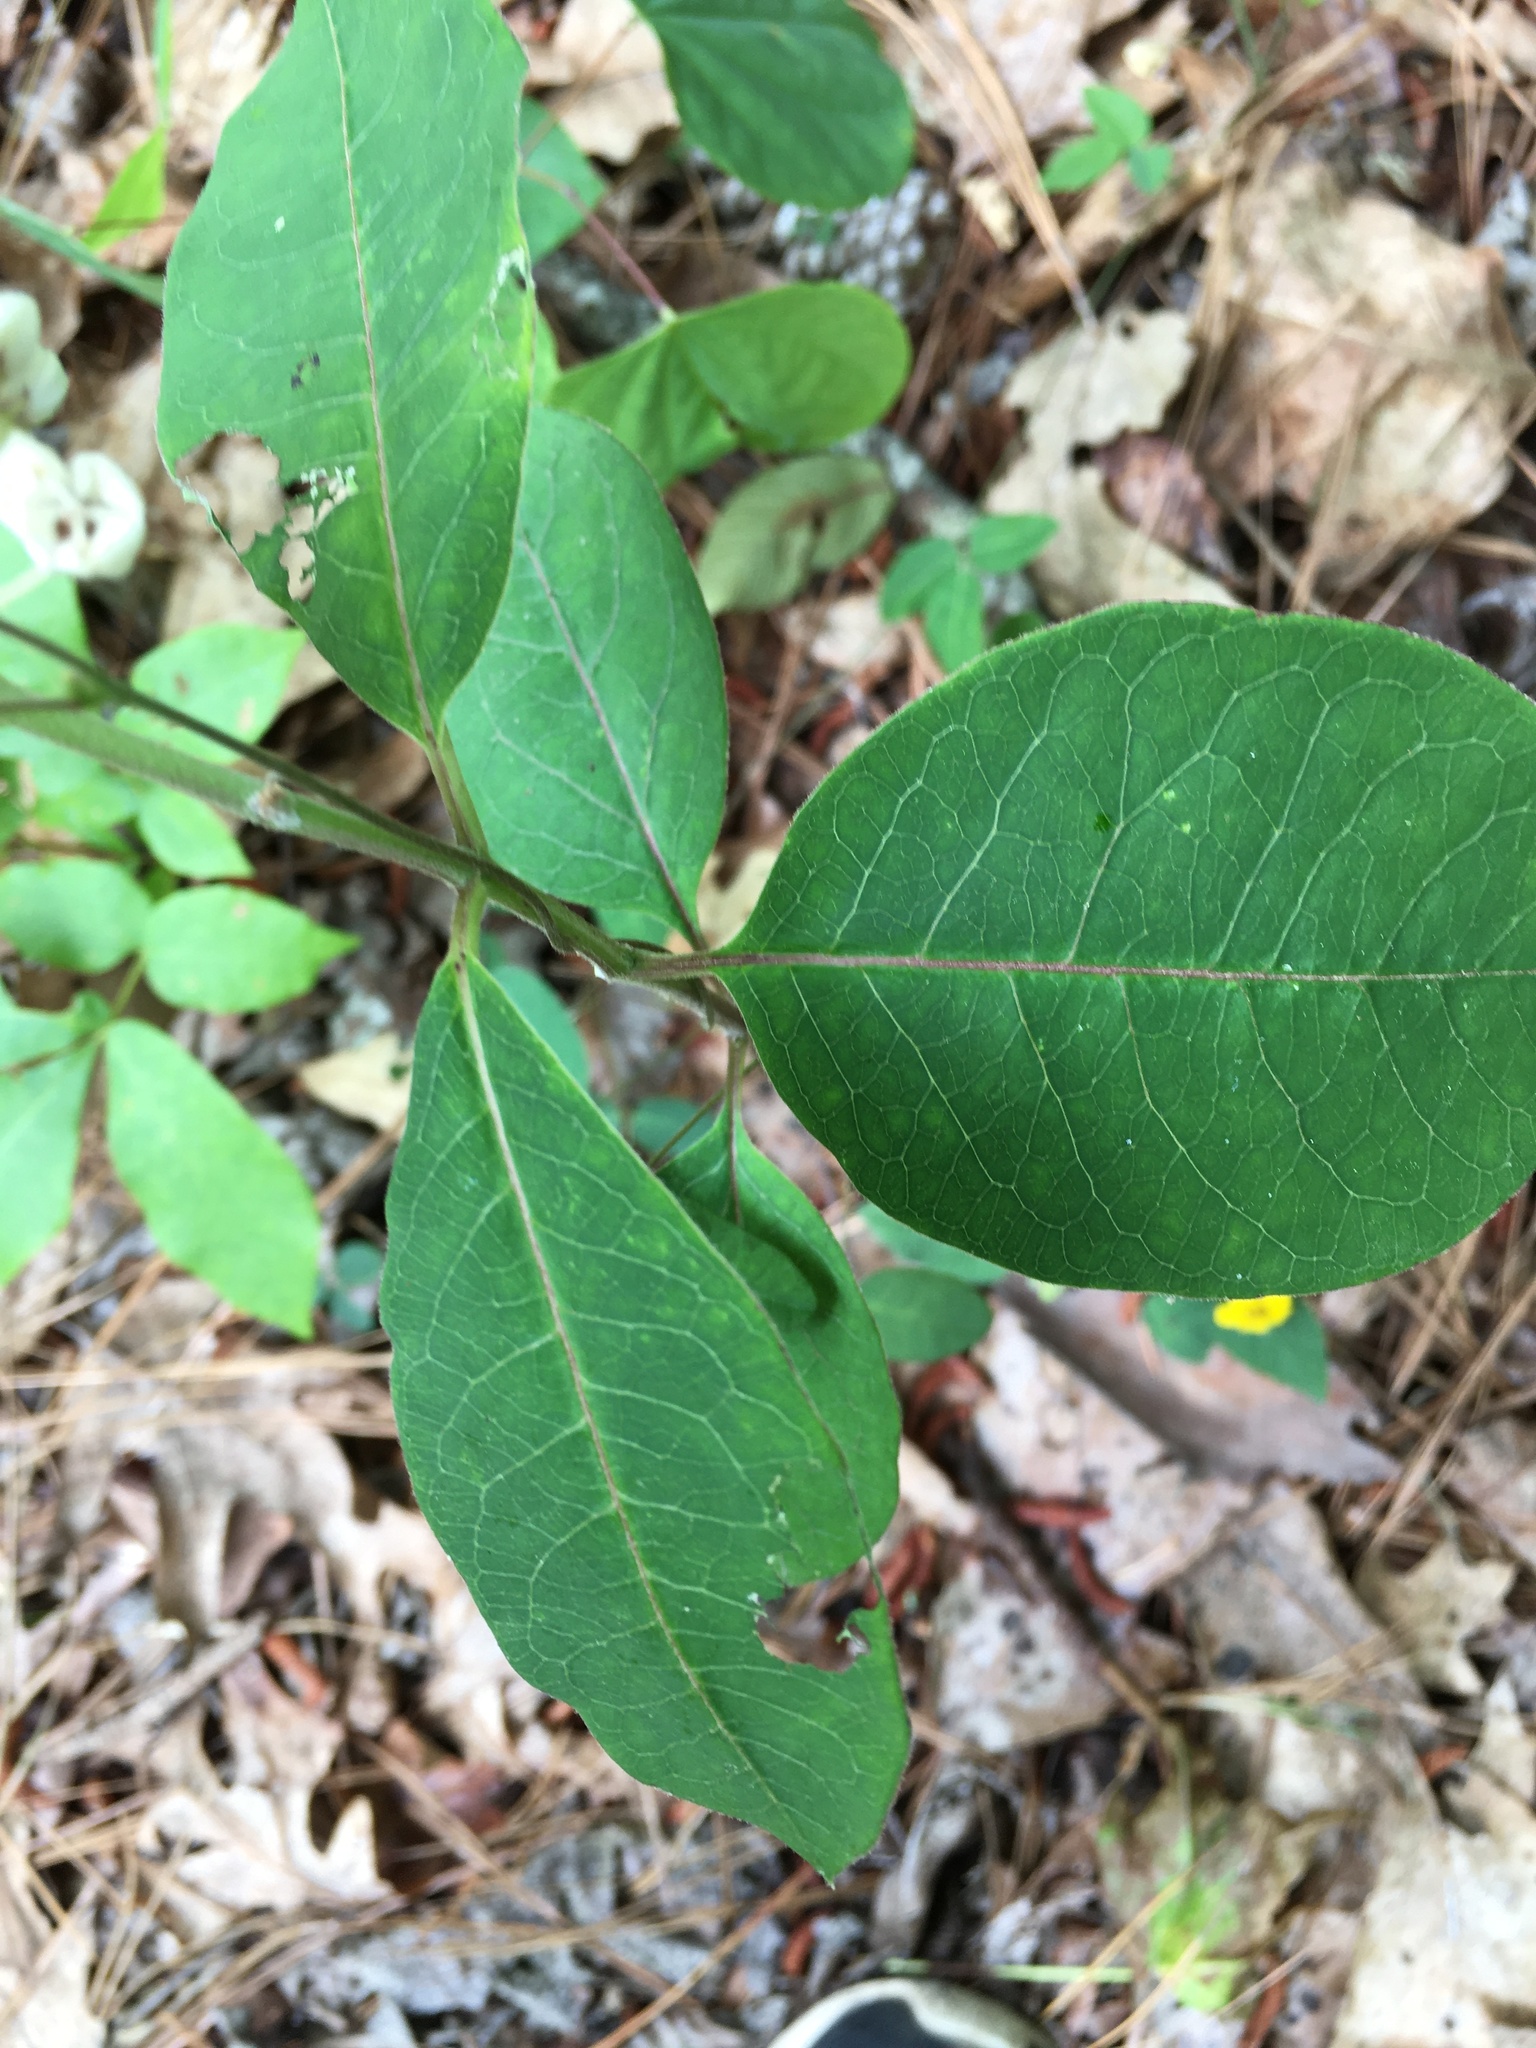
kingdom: Plantae
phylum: Tracheophyta
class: Magnoliopsida
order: Gentianales
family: Apocynaceae
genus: Asclepias
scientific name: Asclepias variegata
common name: Variegated milkweed
